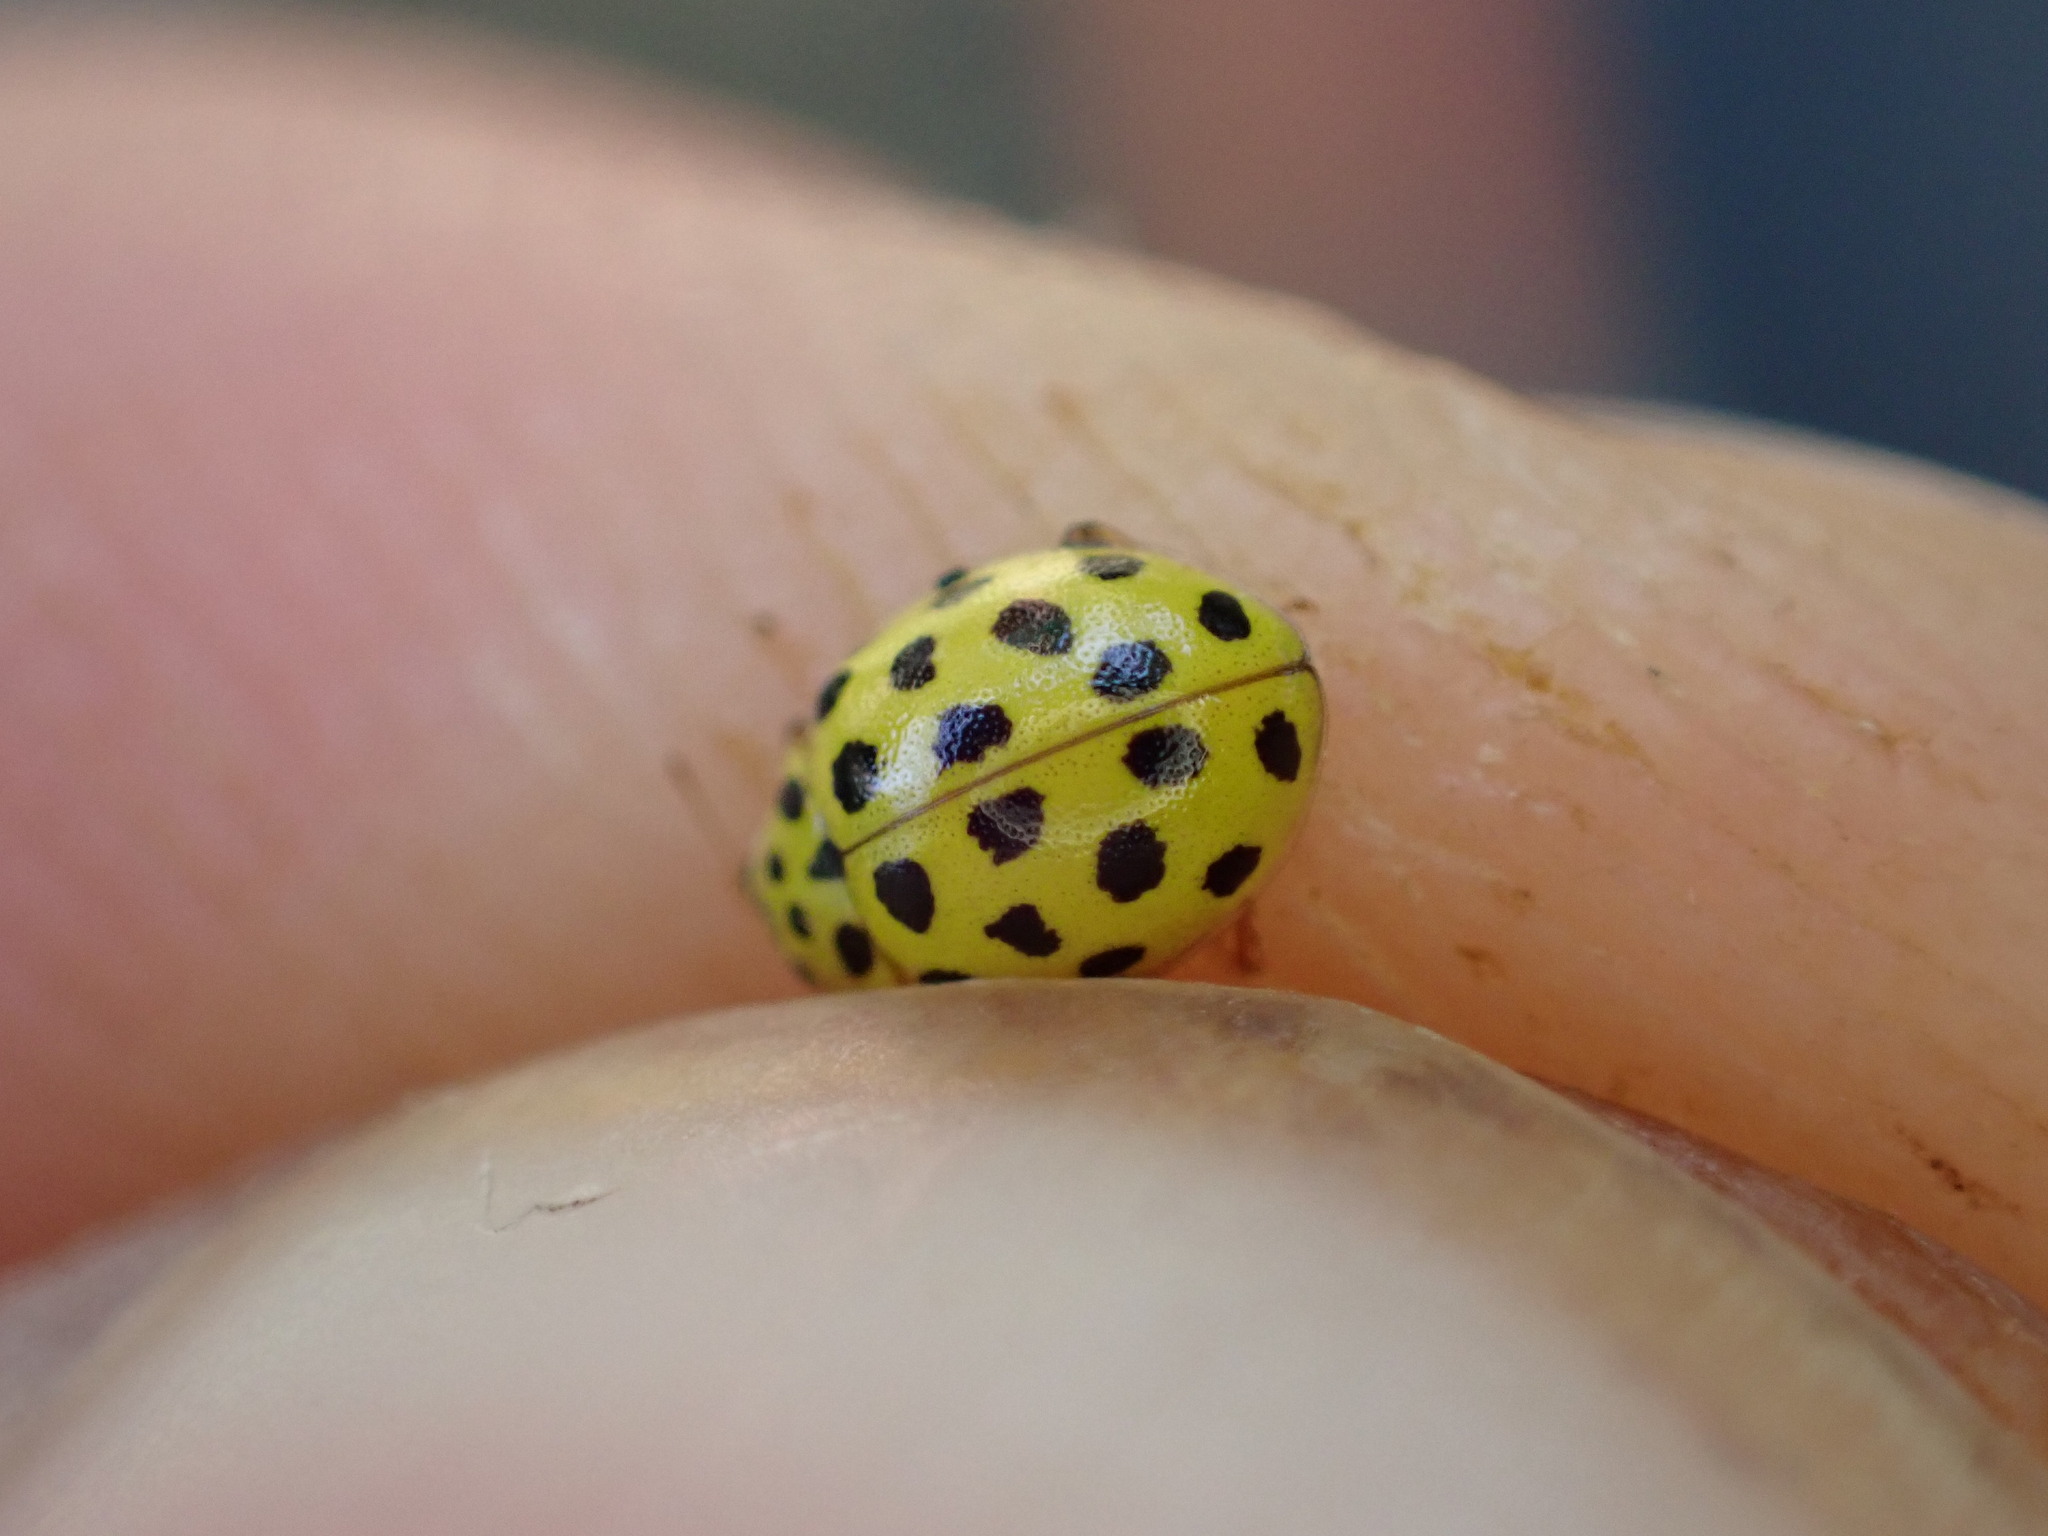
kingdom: Animalia
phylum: Arthropoda
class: Insecta
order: Coleoptera
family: Coccinellidae
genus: Psyllobora
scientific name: Psyllobora vigintiduopunctata
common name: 22-spot ladybird
